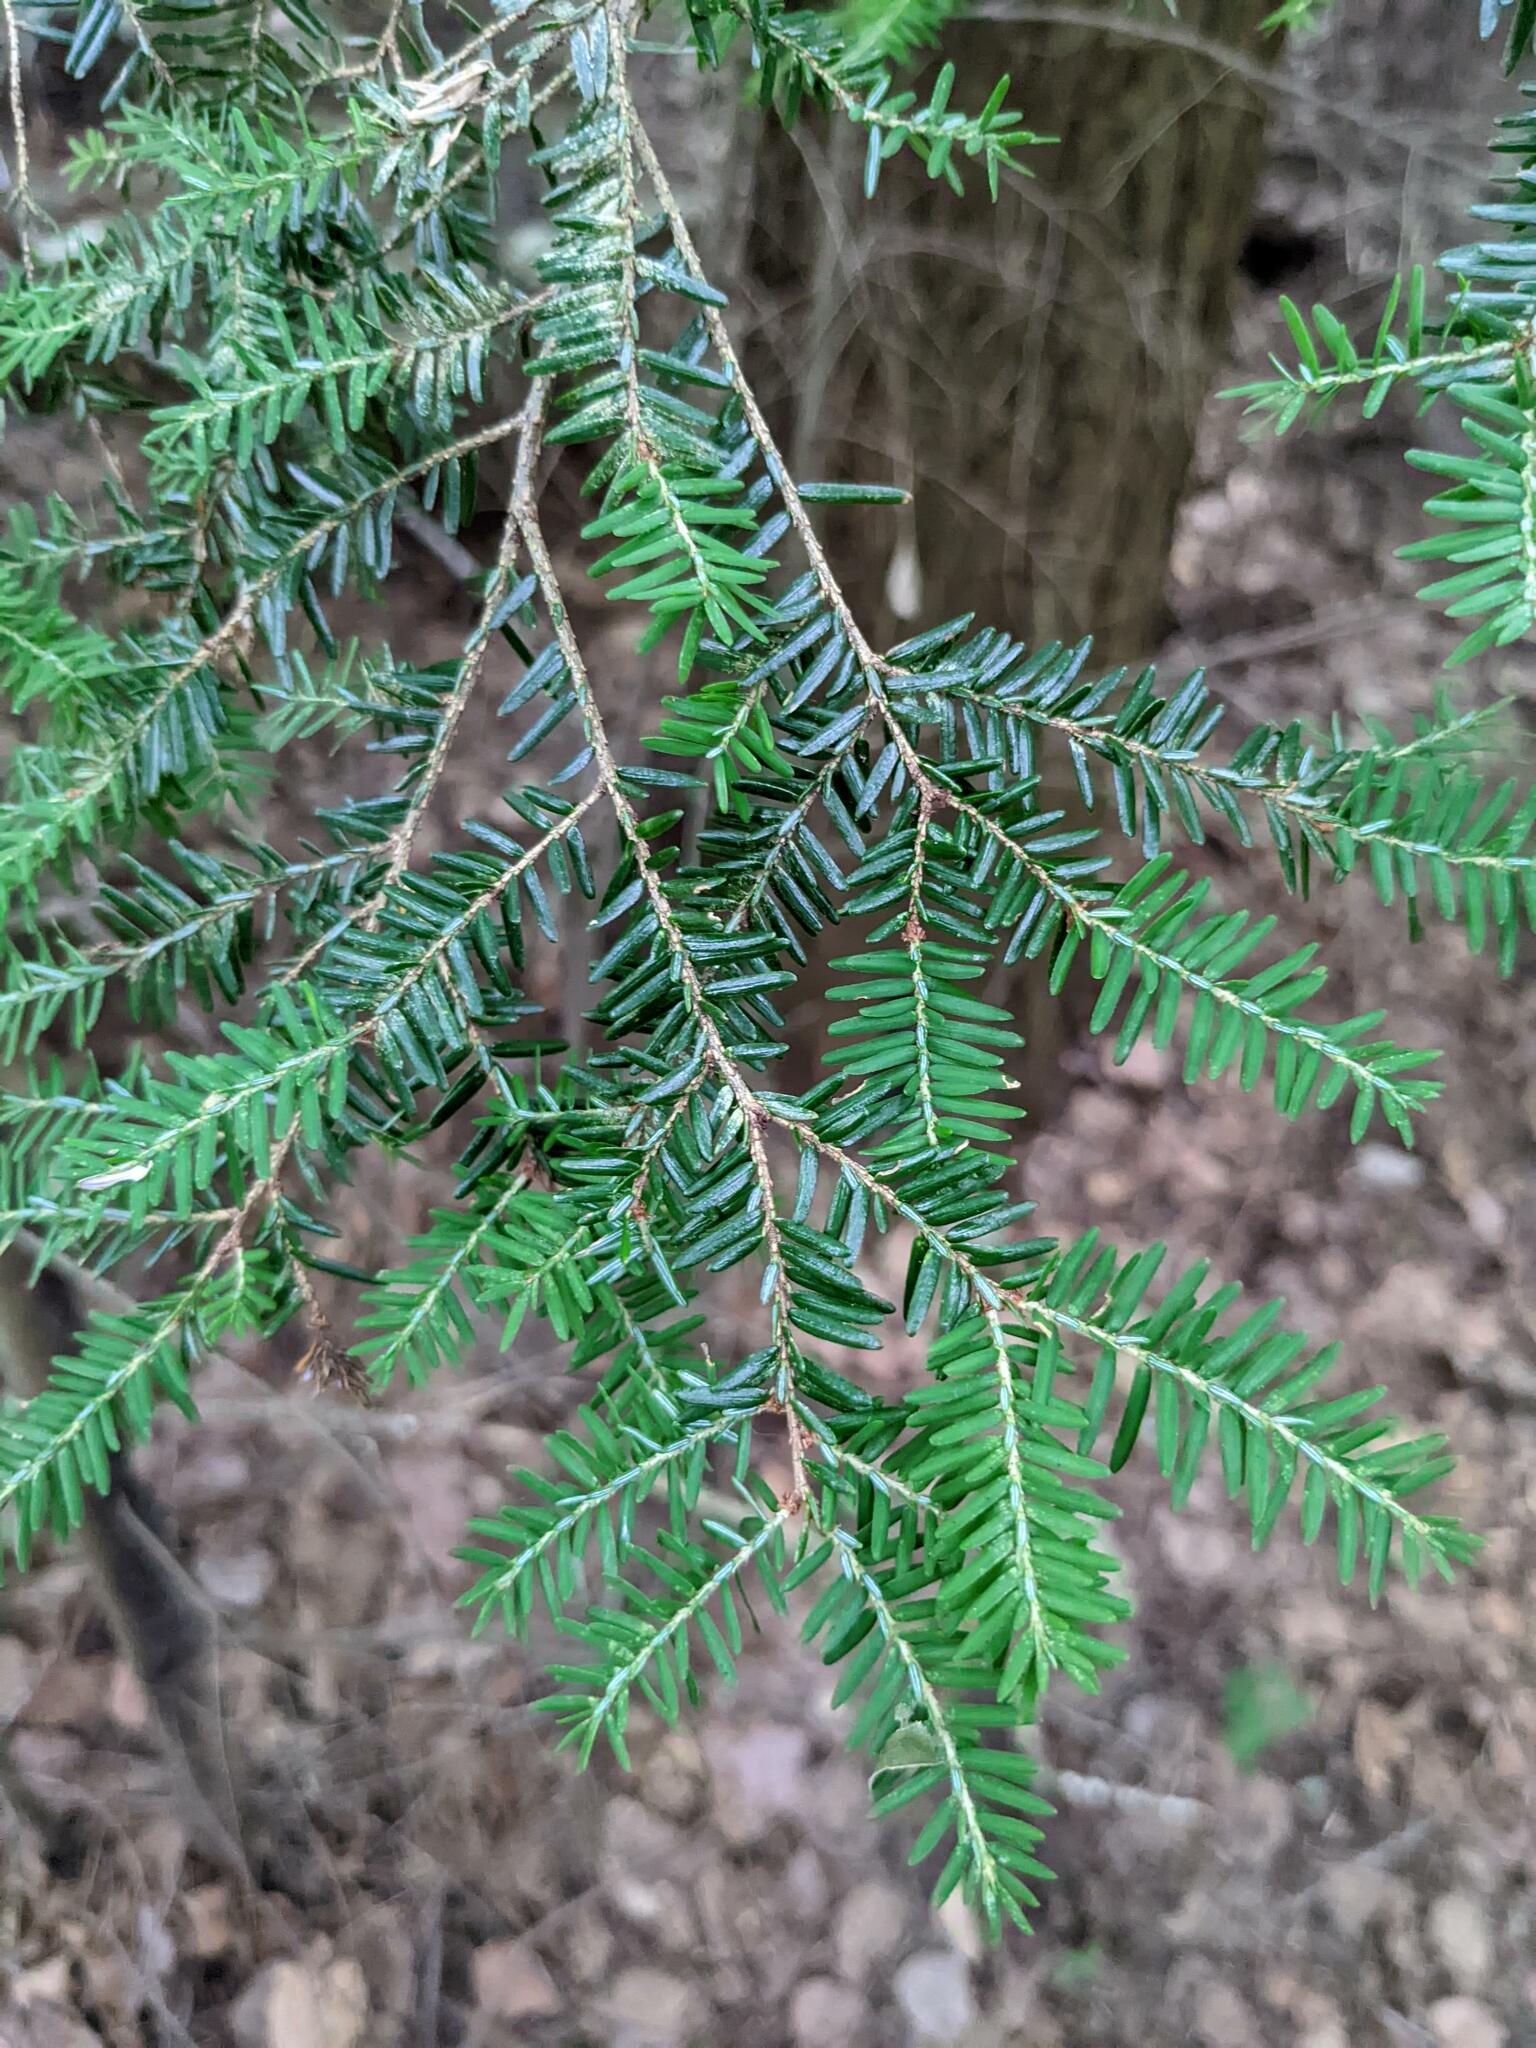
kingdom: Plantae
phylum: Tracheophyta
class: Pinopsida
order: Pinales
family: Pinaceae
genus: Tsuga
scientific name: Tsuga canadensis
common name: Eastern hemlock
